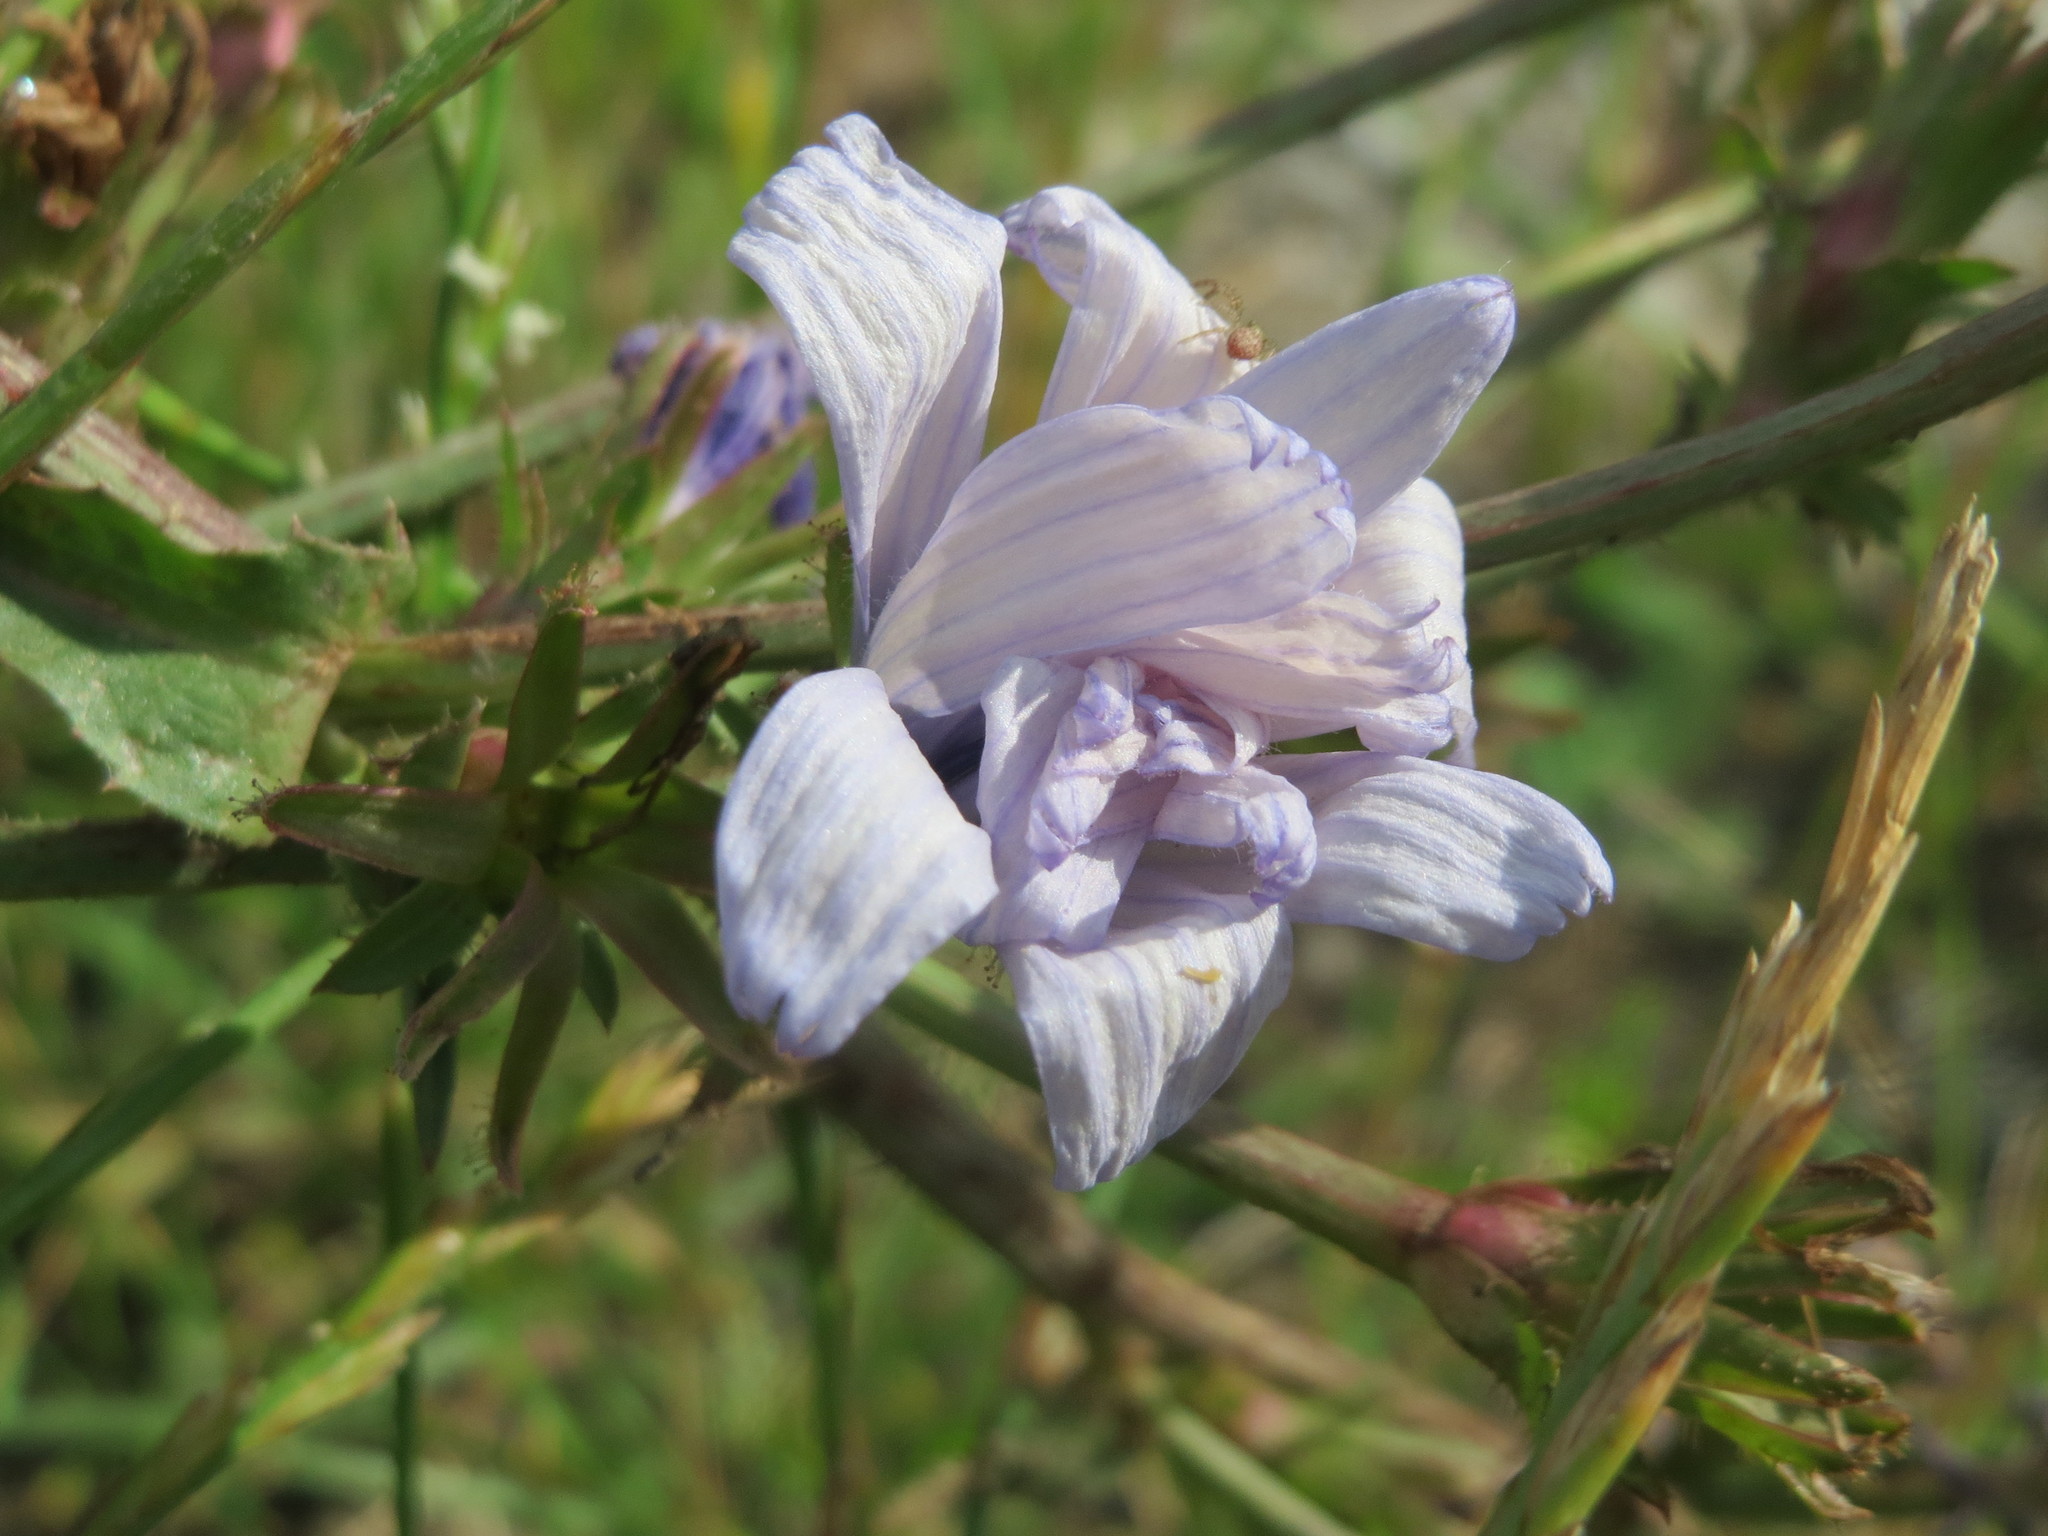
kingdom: Plantae
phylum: Tracheophyta
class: Magnoliopsida
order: Asterales
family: Asteraceae
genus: Cichorium
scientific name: Cichorium intybus
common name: Chicory
